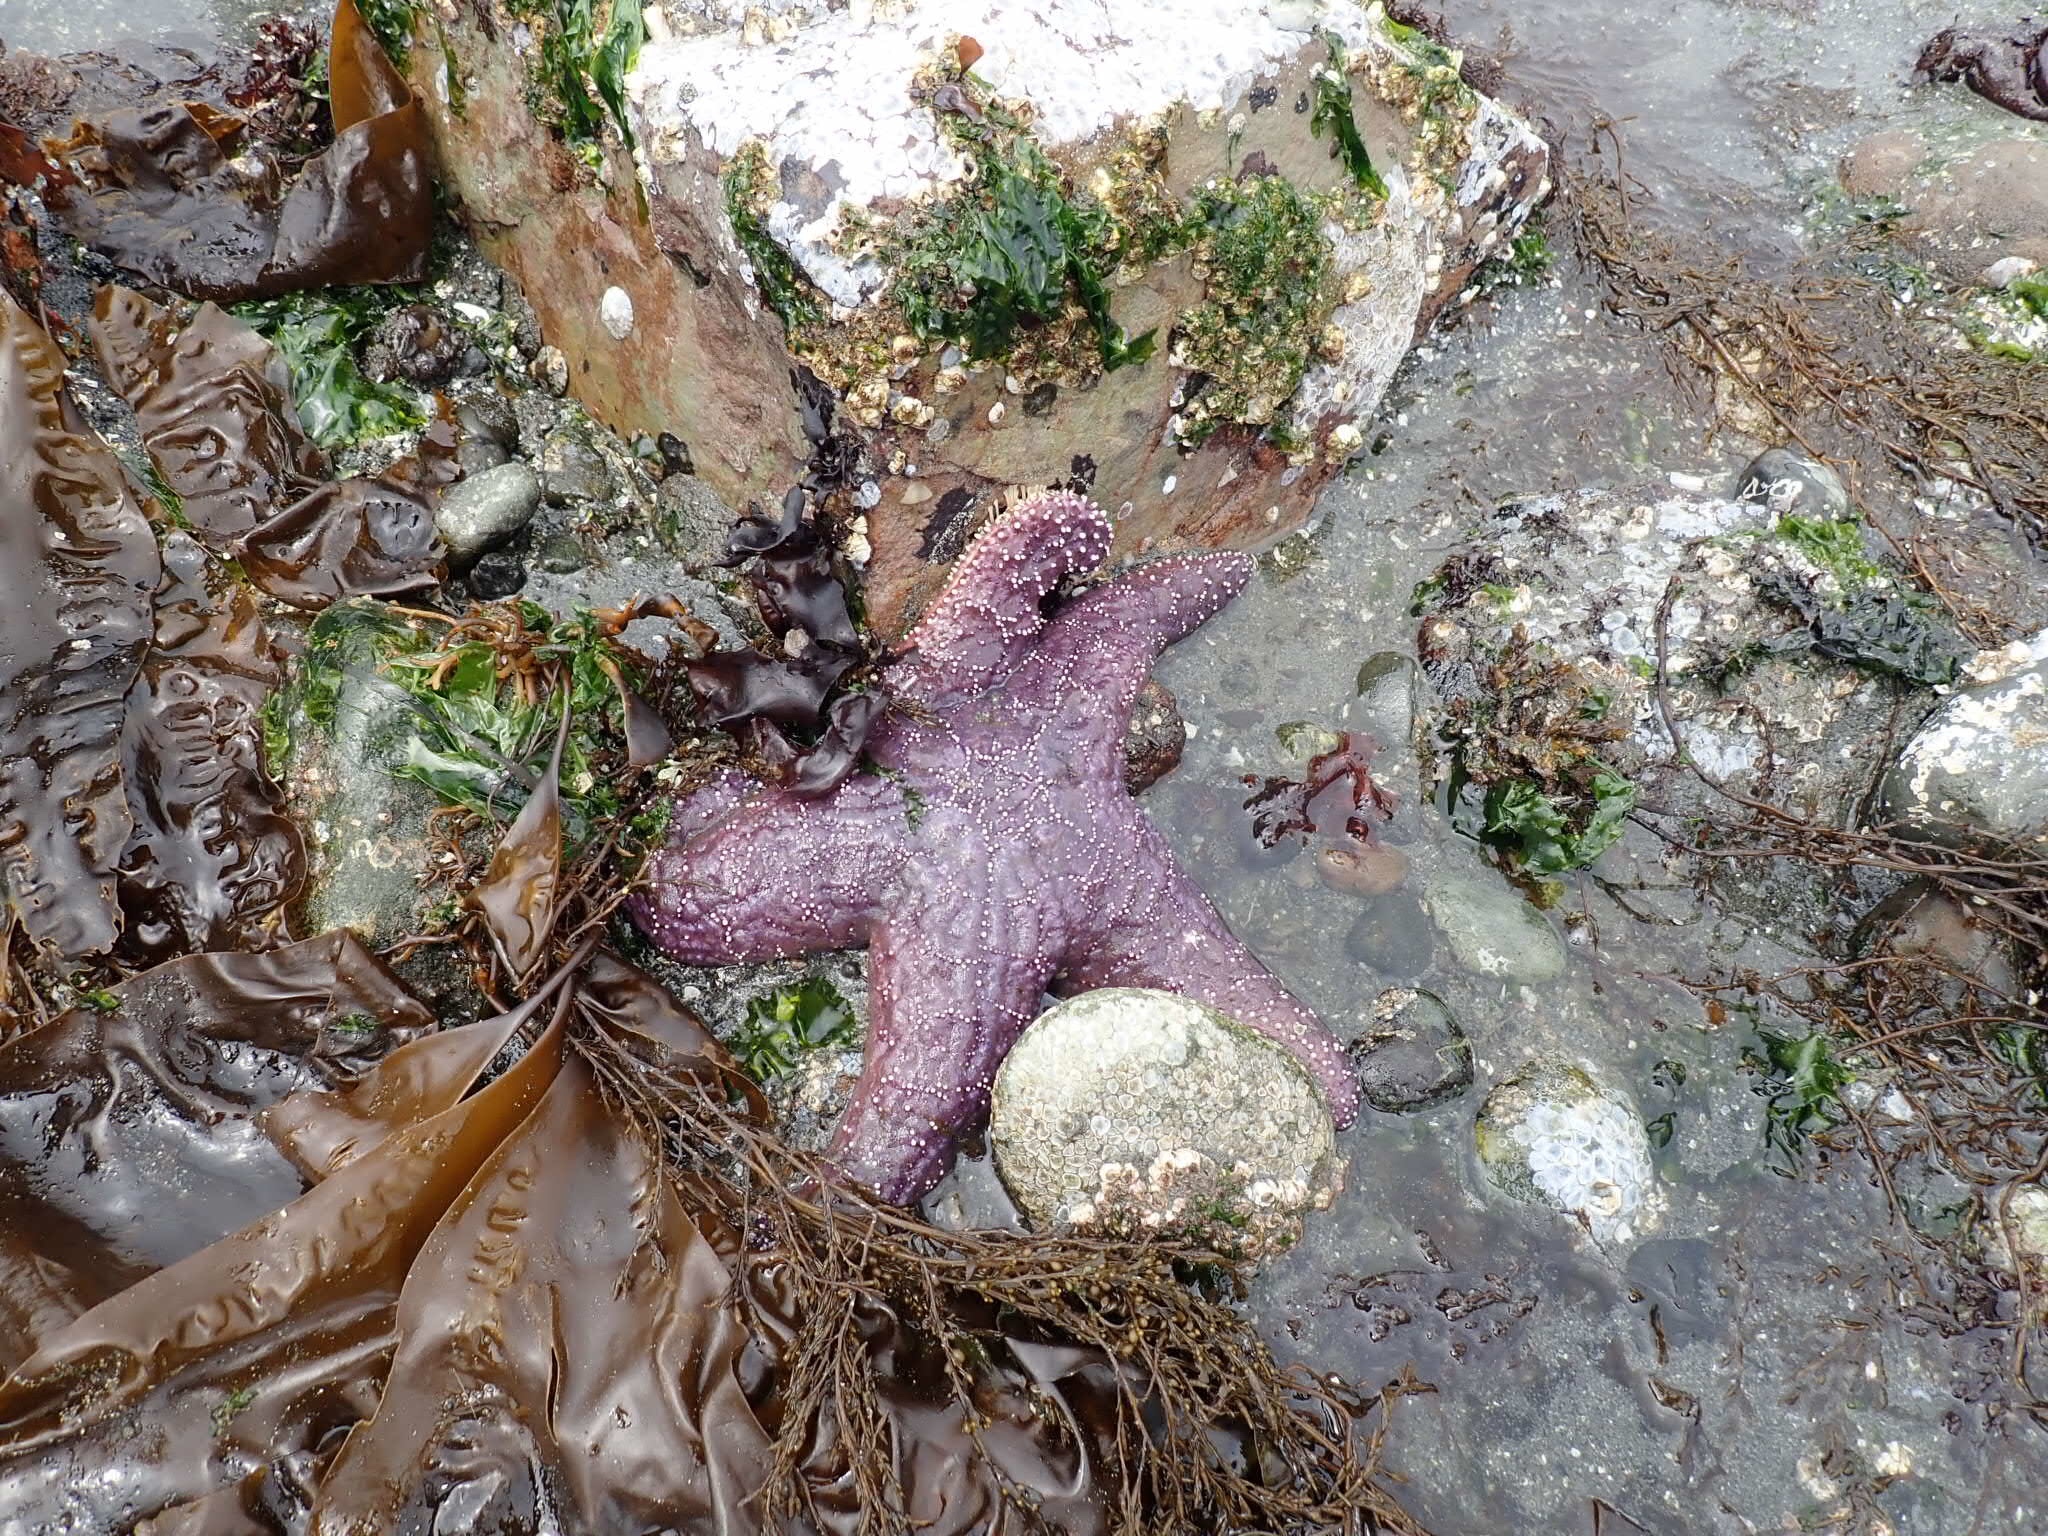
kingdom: Animalia
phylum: Echinodermata
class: Asteroidea
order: Forcipulatida
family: Asteriidae
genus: Pisaster
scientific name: Pisaster ochraceus
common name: Ochre stars
